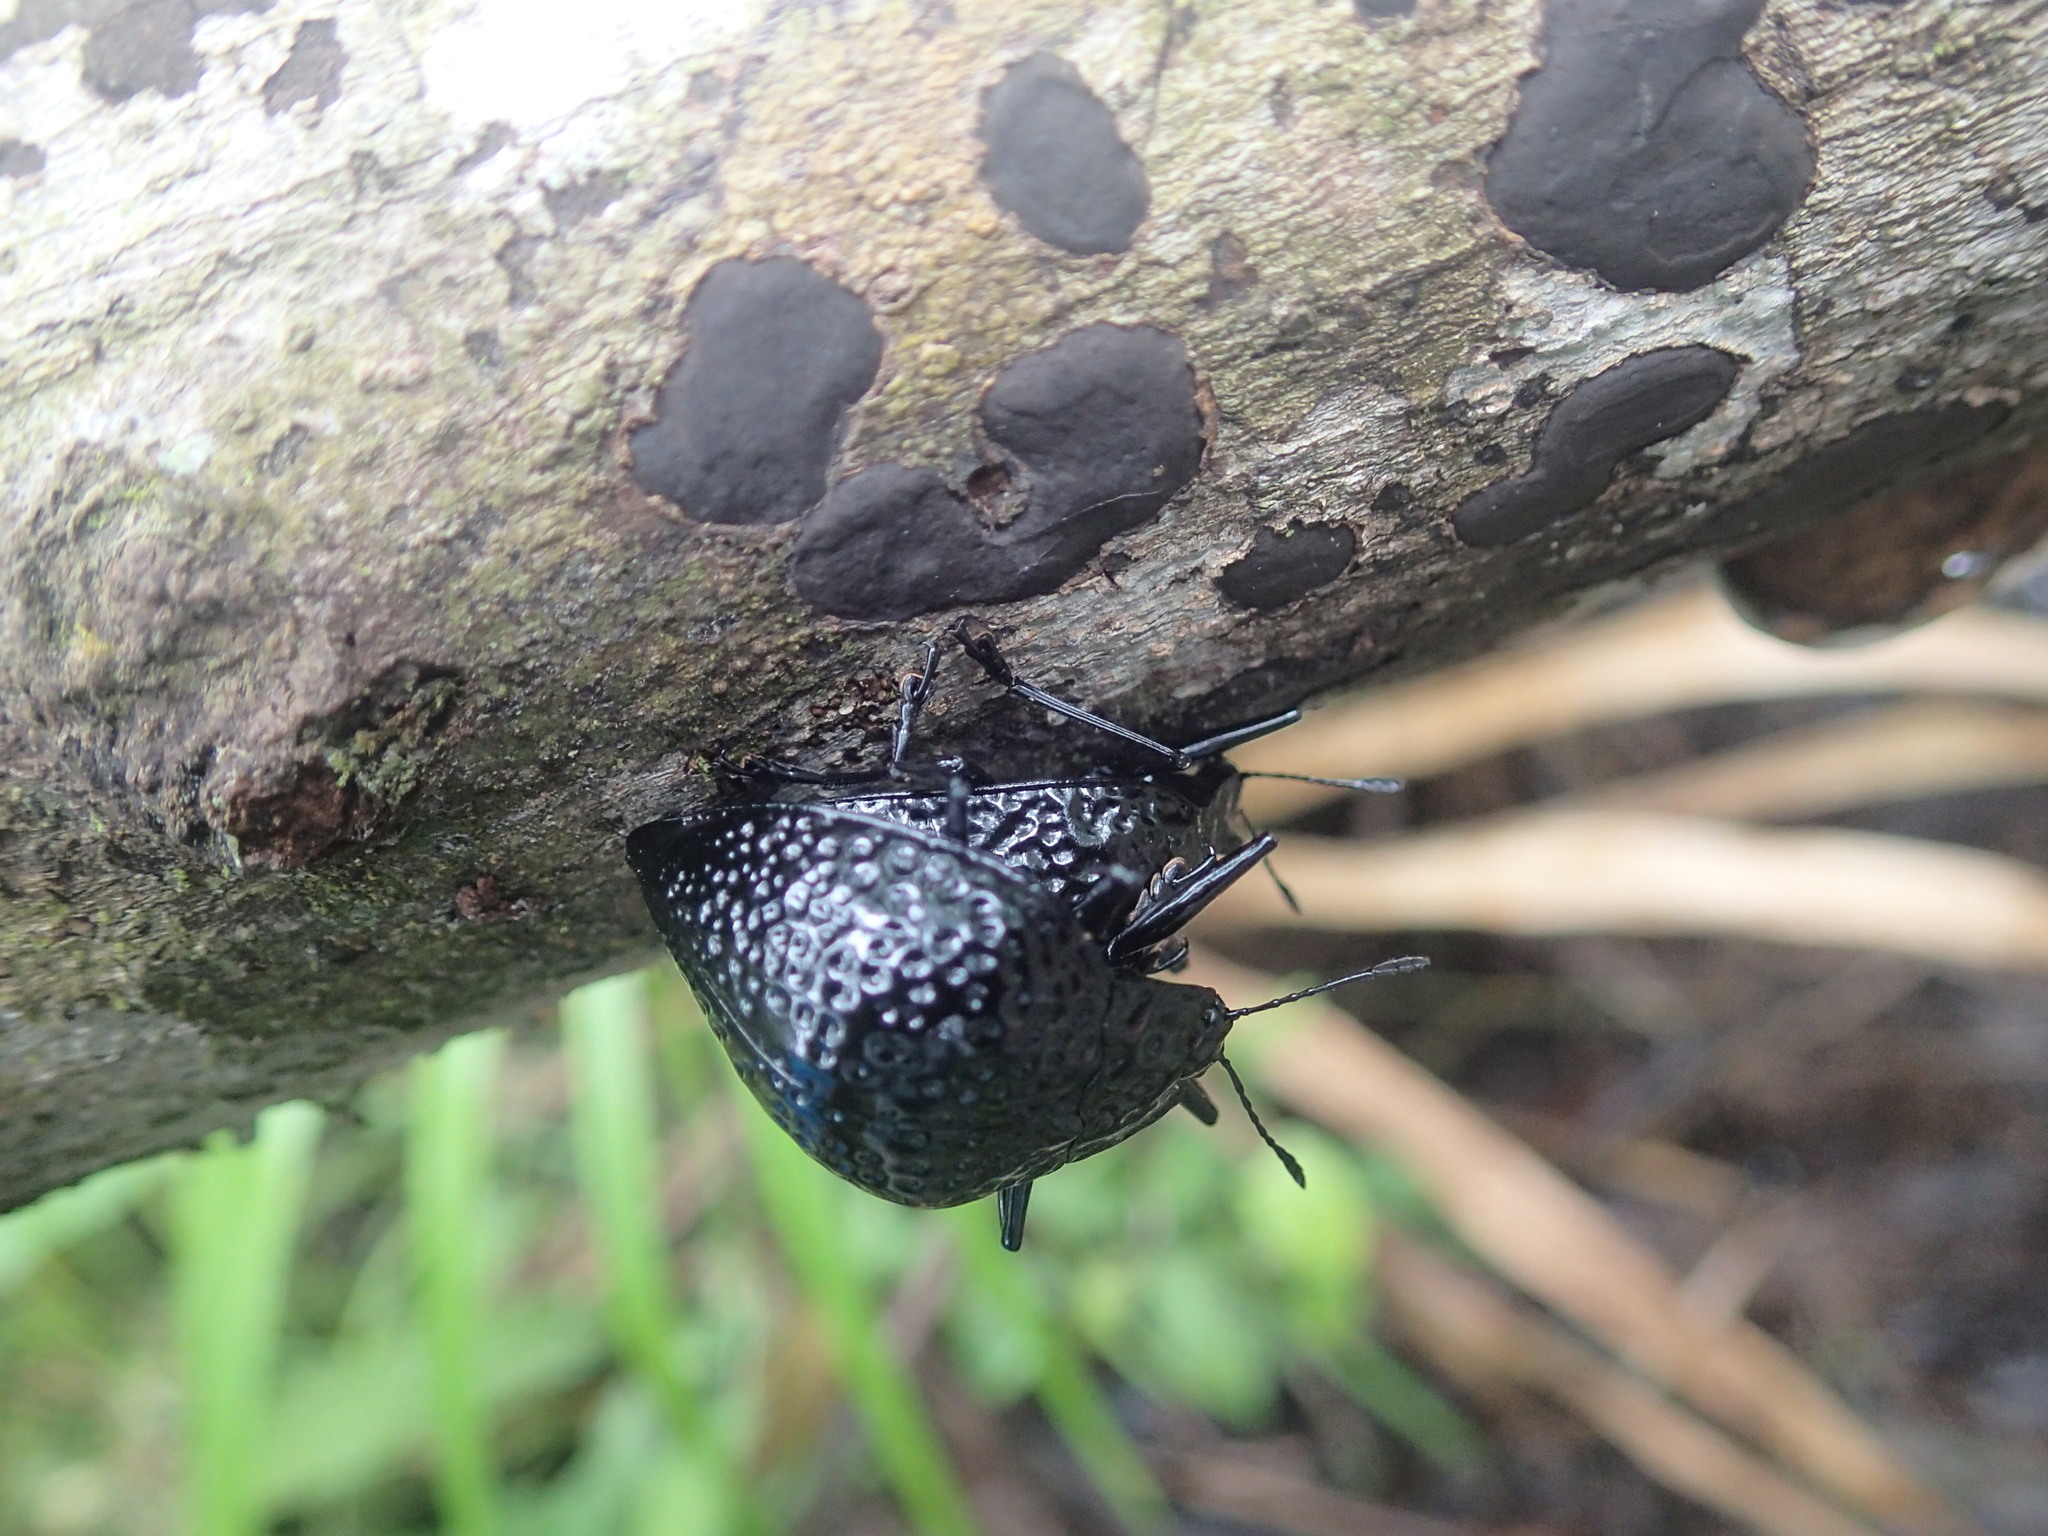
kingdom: Animalia
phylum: Arthropoda
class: Insecta
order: Coleoptera
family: Erotylidae
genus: Erotylus
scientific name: Erotylus
